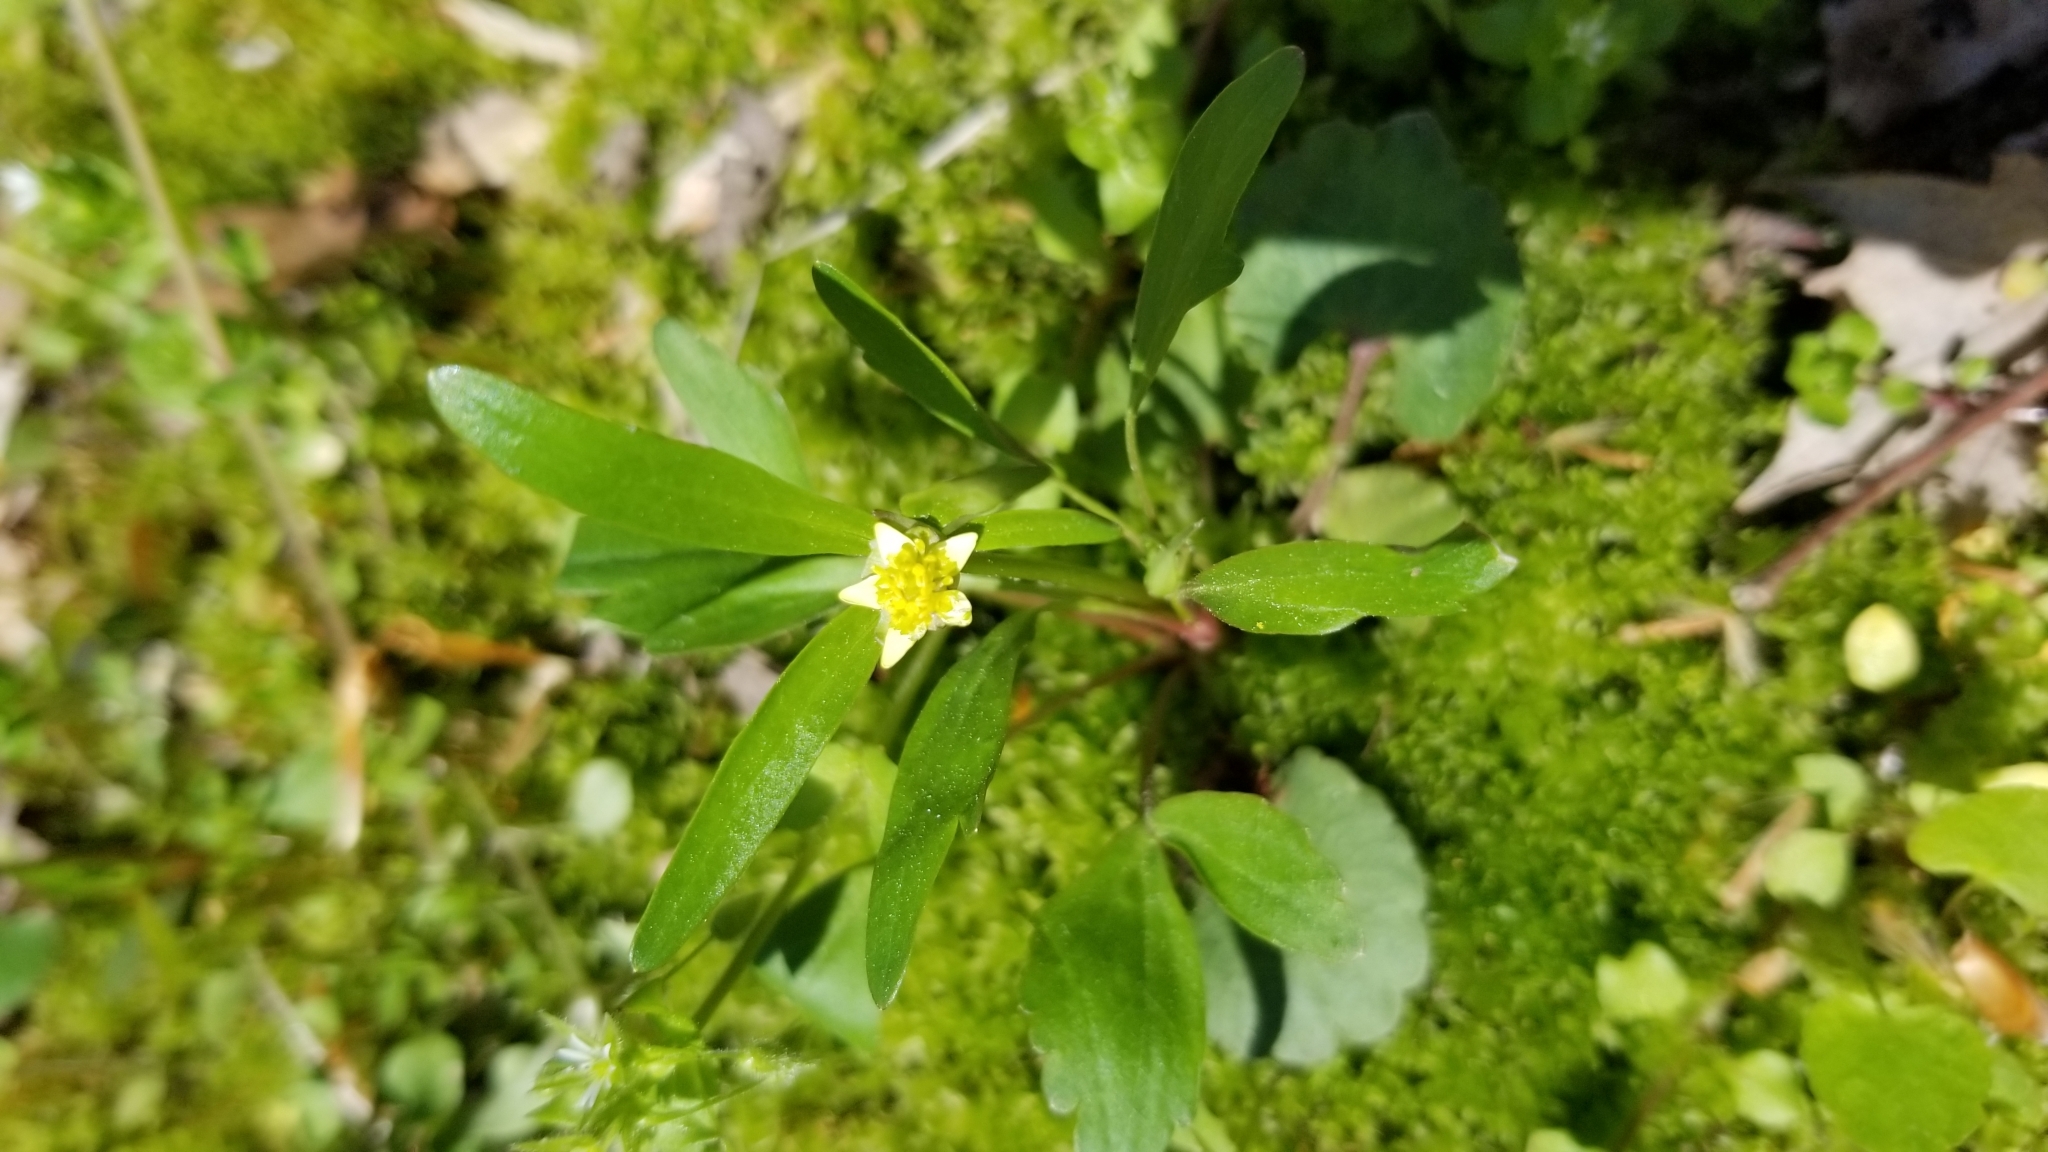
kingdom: Plantae
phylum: Tracheophyta
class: Magnoliopsida
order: Ranunculales
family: Ranunculaceae
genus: Ranunculus
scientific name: Ranunculus abortivus
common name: Early wood buttercup
